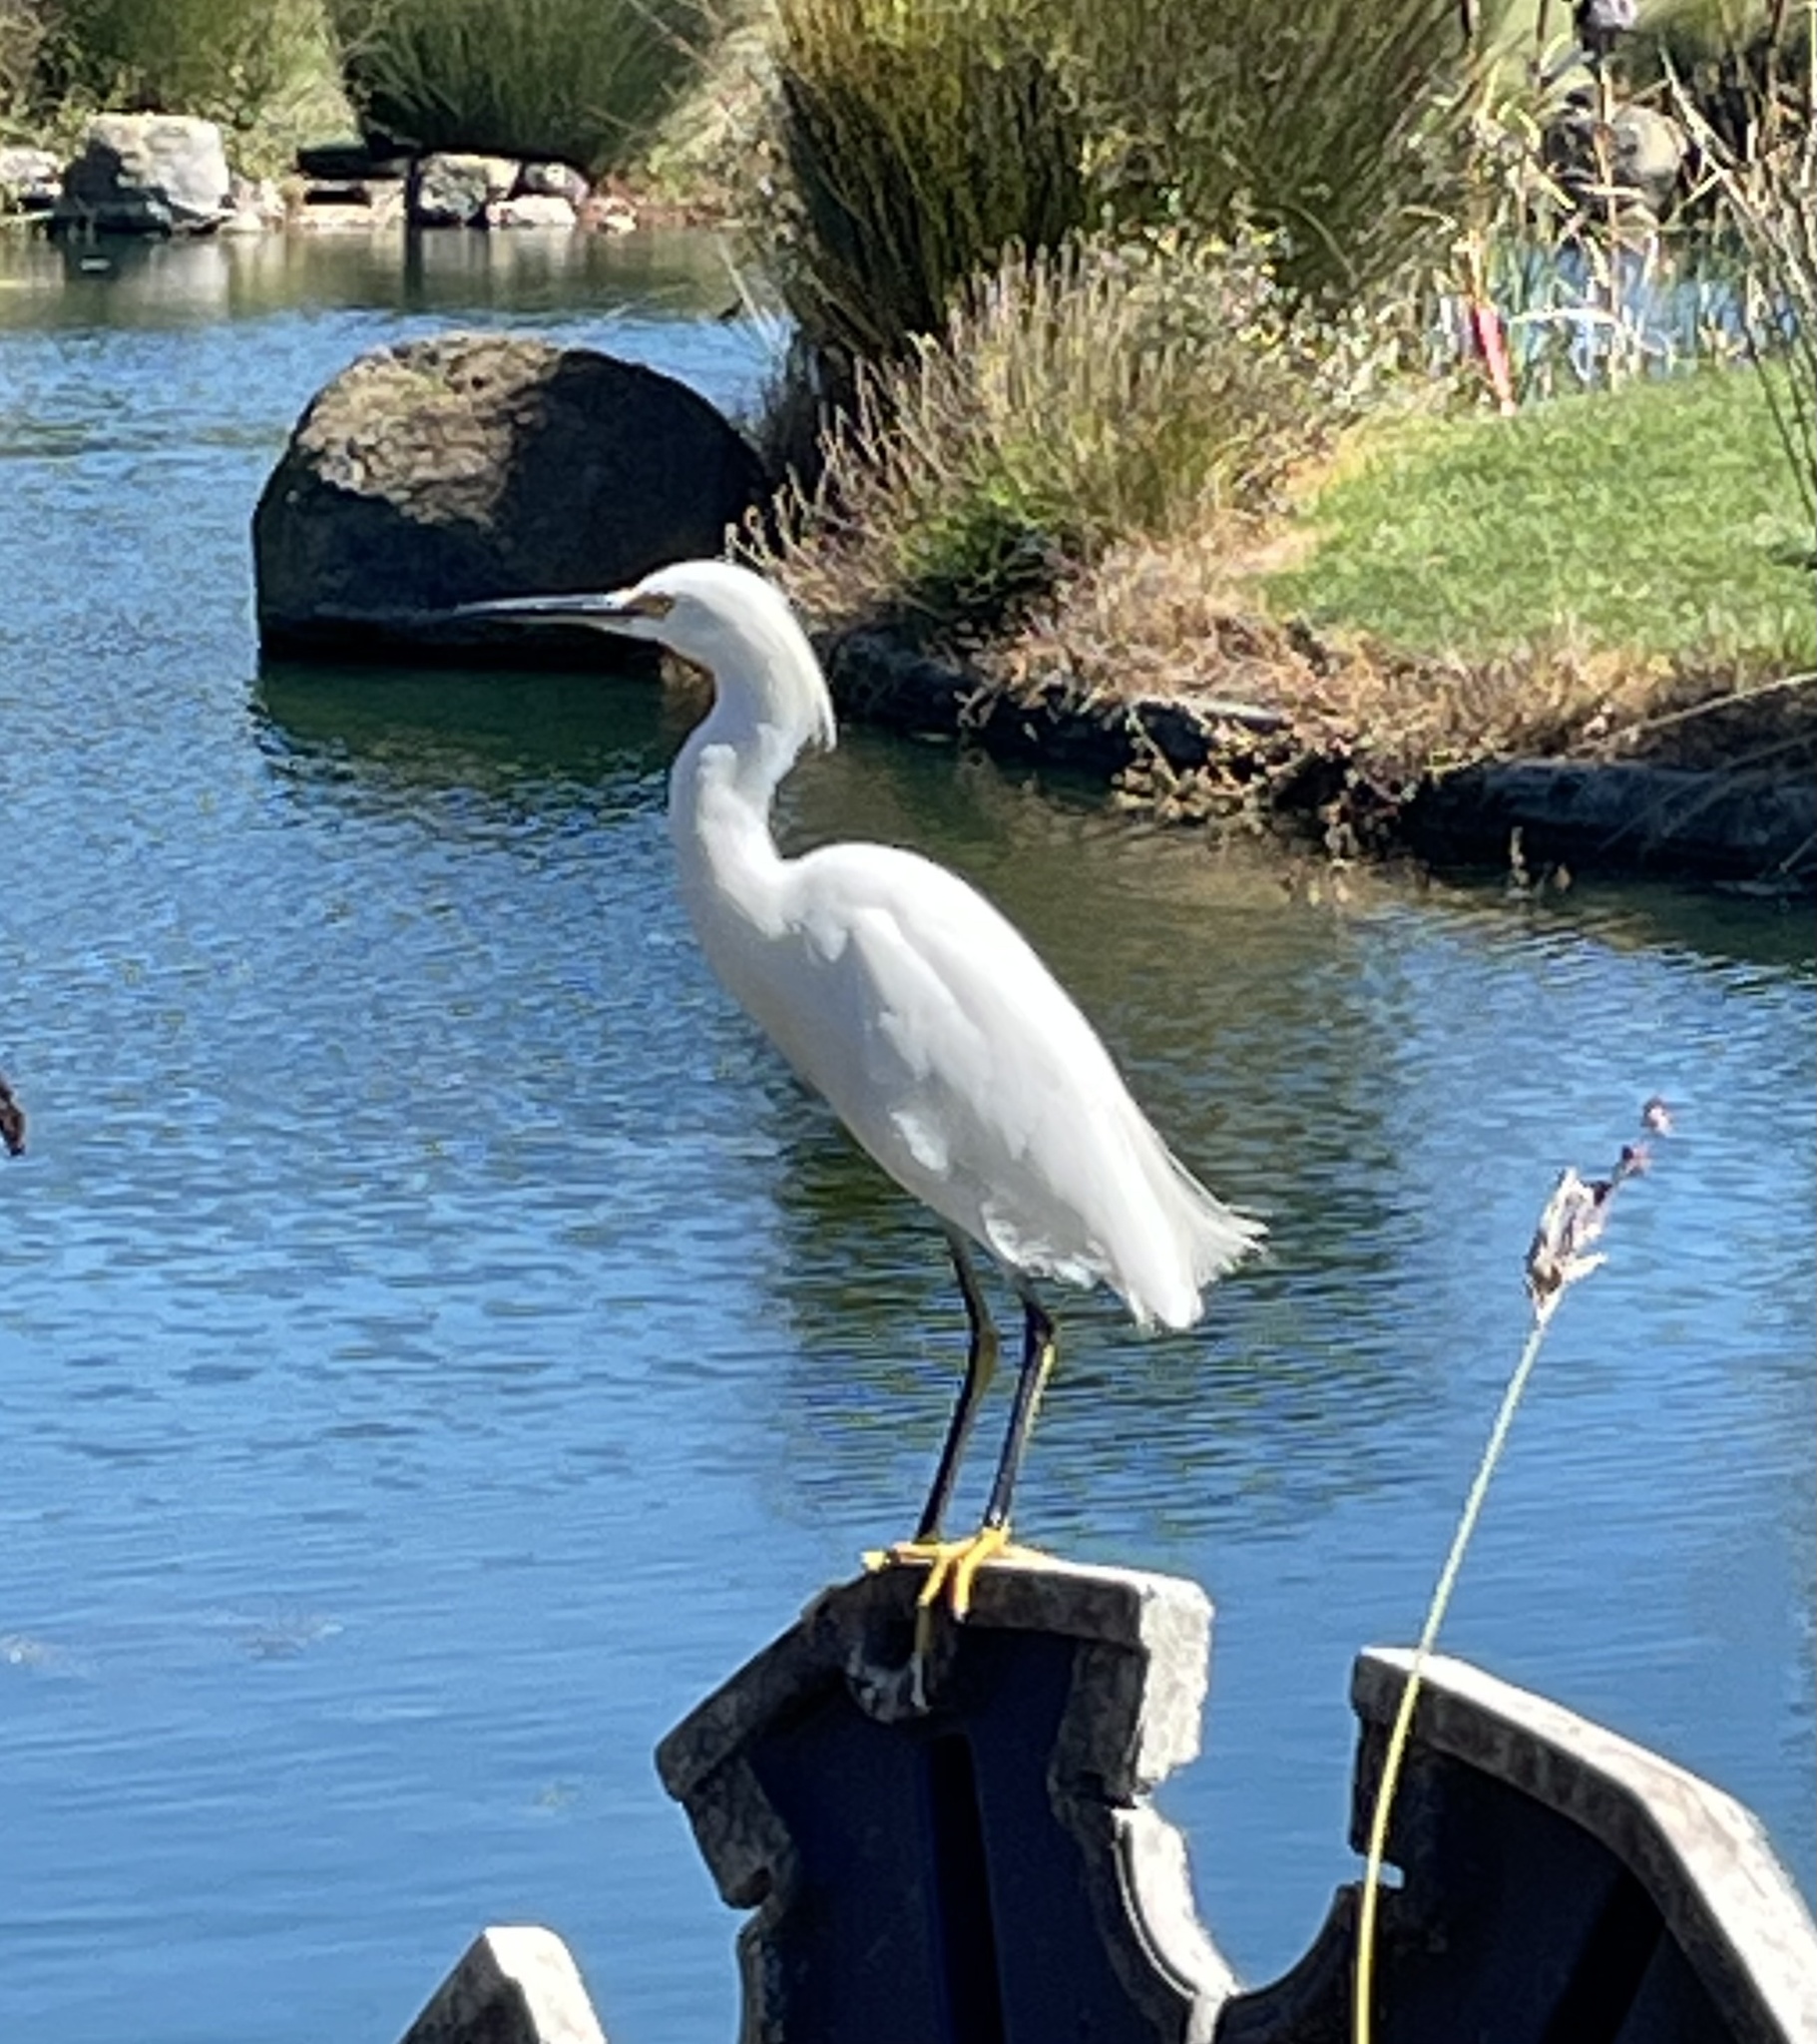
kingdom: Animalia
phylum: Chordata
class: Aves
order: Pelecaniformes
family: Ardeidae
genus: Egretta
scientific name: Egretta thula
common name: Snowy egret
